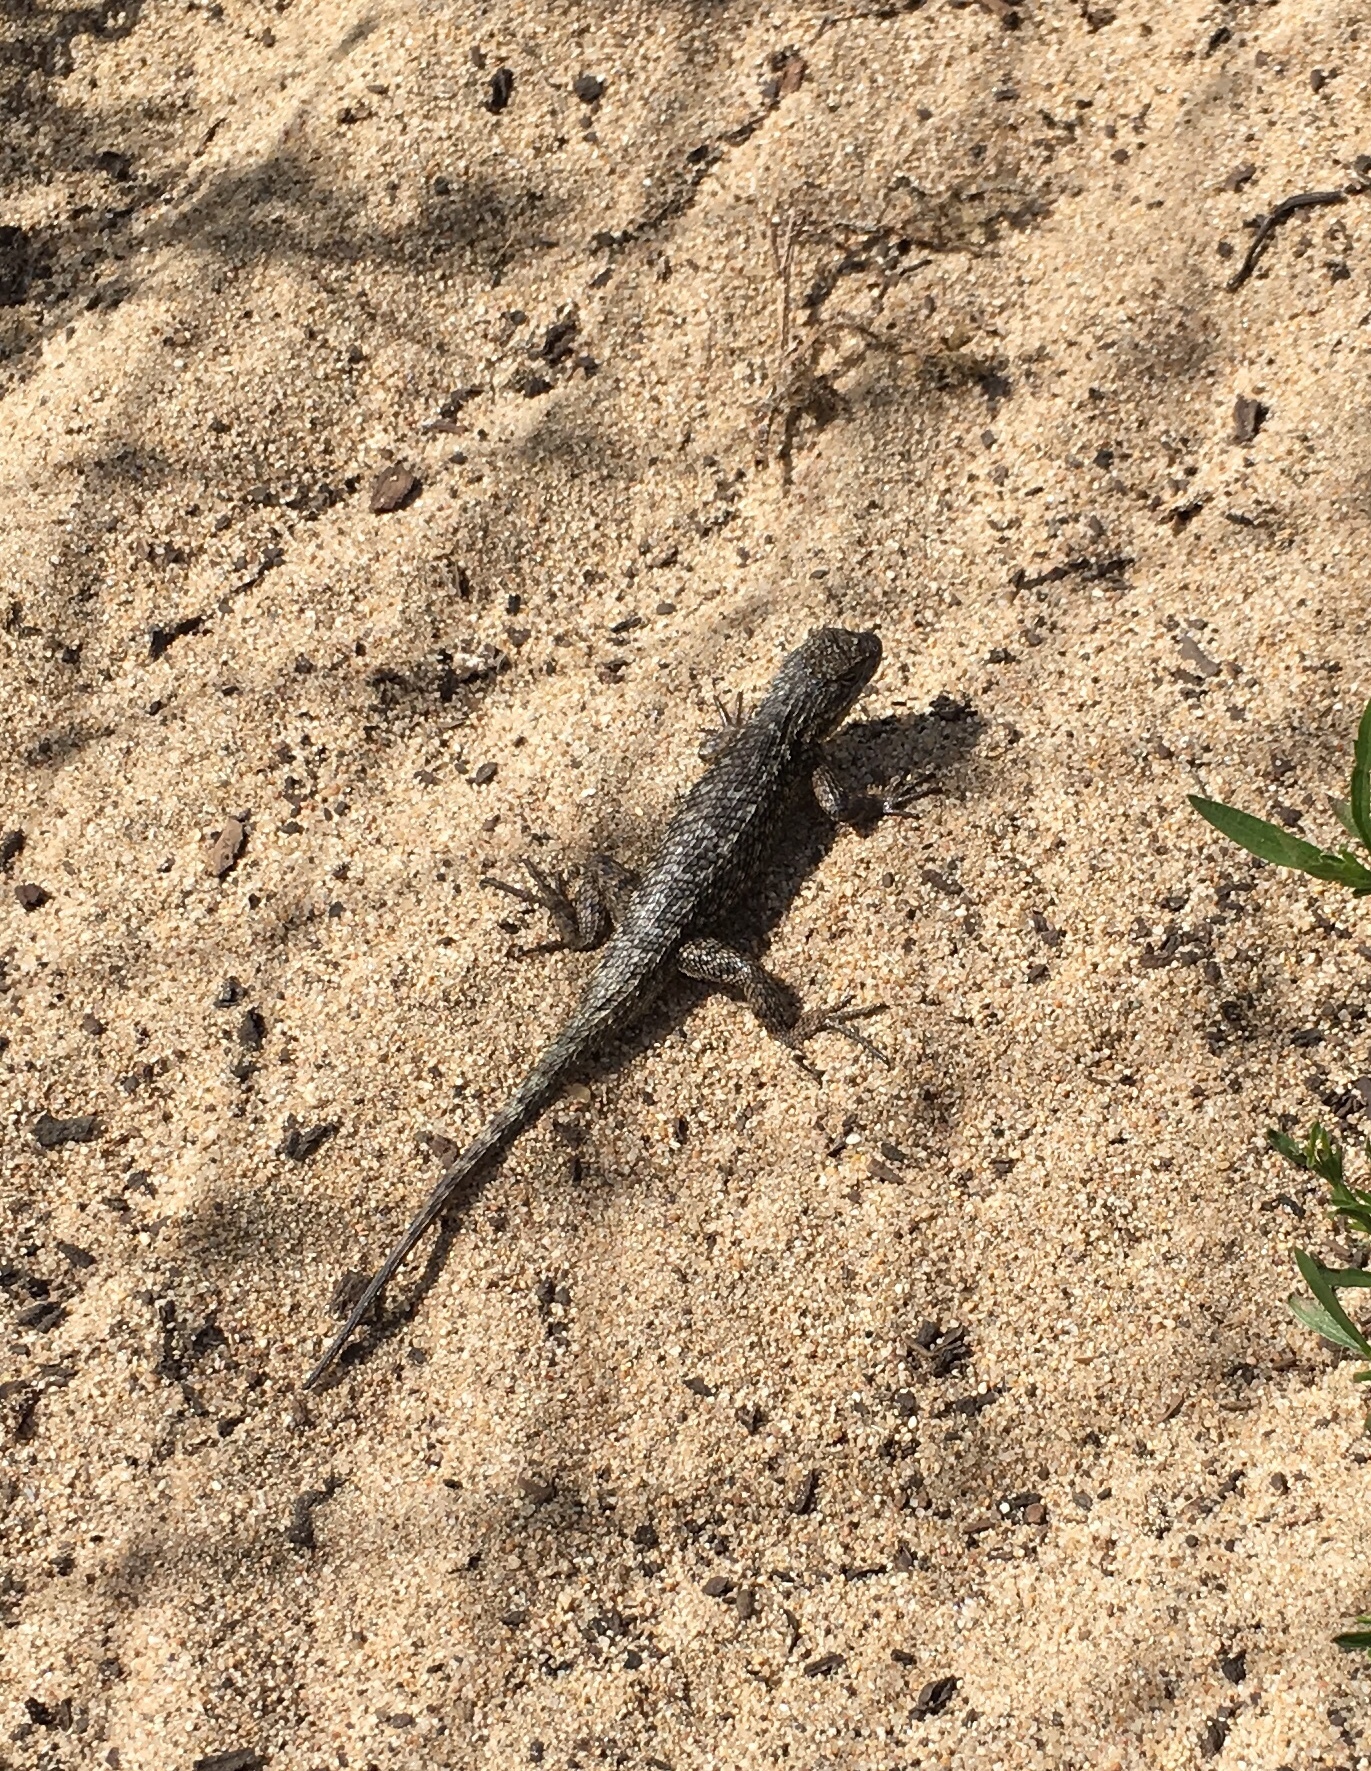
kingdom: Animalia
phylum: Chordata
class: Squamata
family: Phrynosomatidae
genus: Sceloporus
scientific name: Sceloporus occidentalis
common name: Western fence lizard
